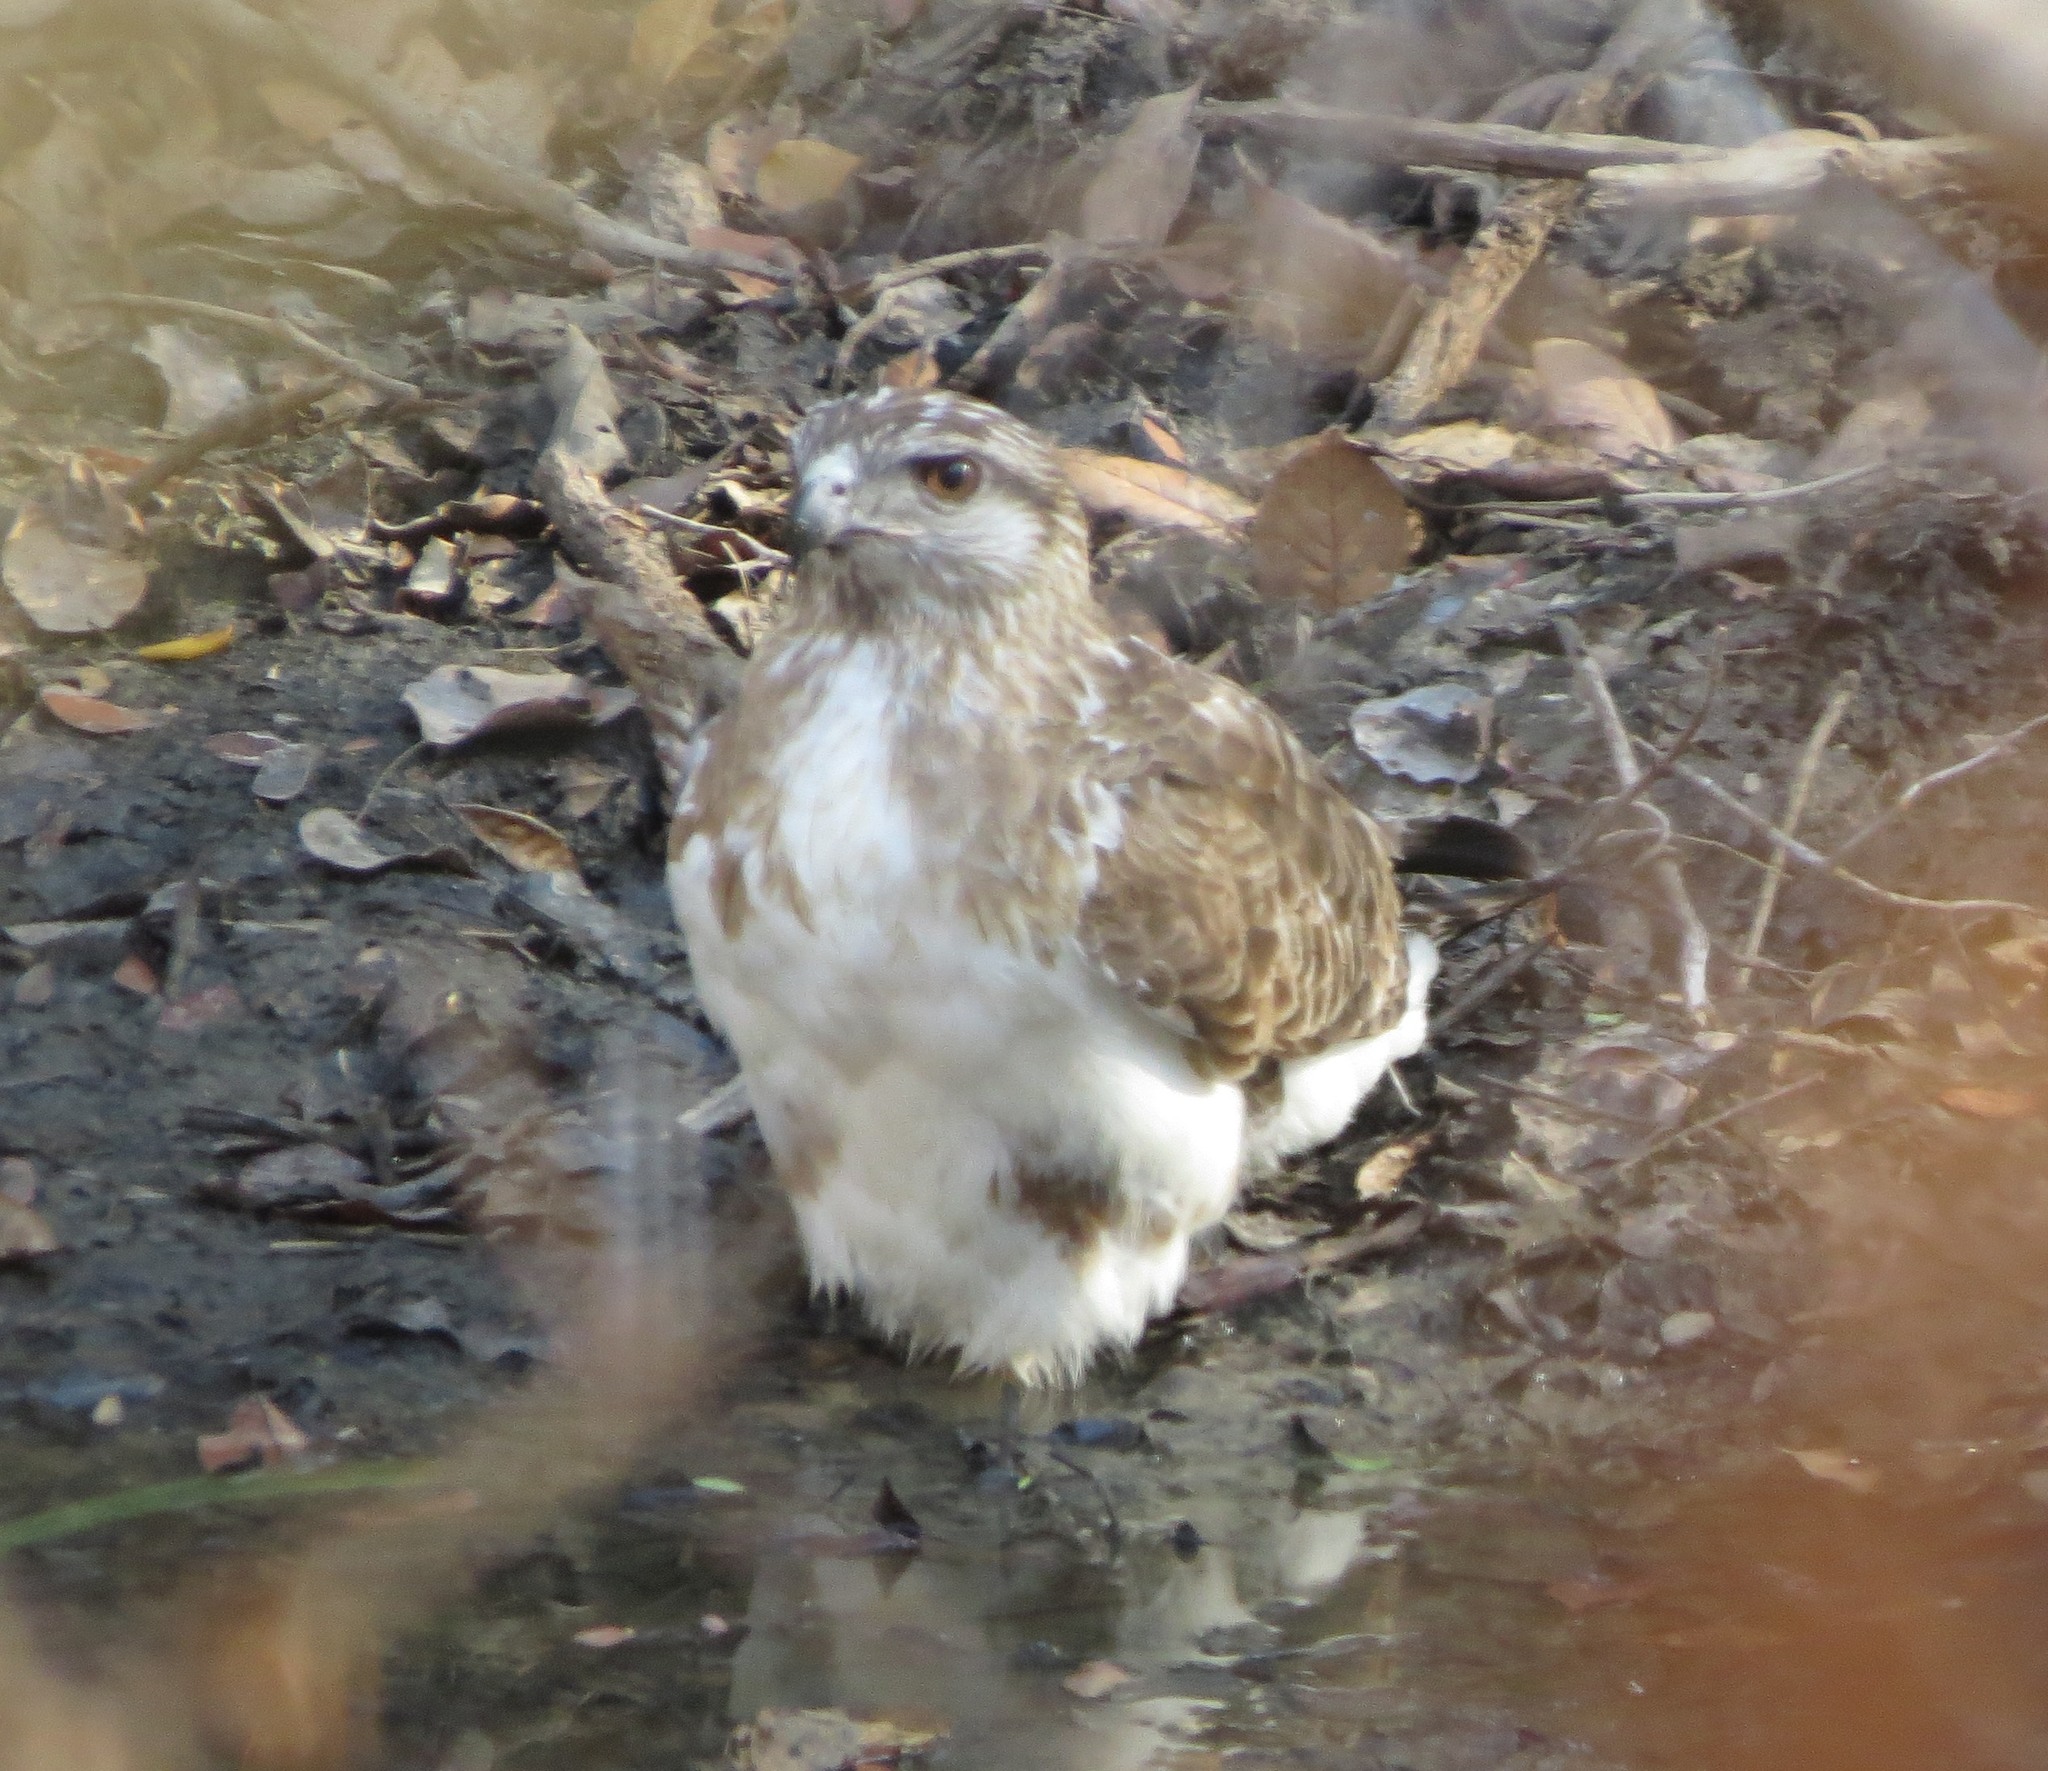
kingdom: Animalia
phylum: Chordata
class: Aves
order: Accipitriformes
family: Accipitridae
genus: Buteo
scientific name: Buteo brachypterus
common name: Madagascar buzzard
